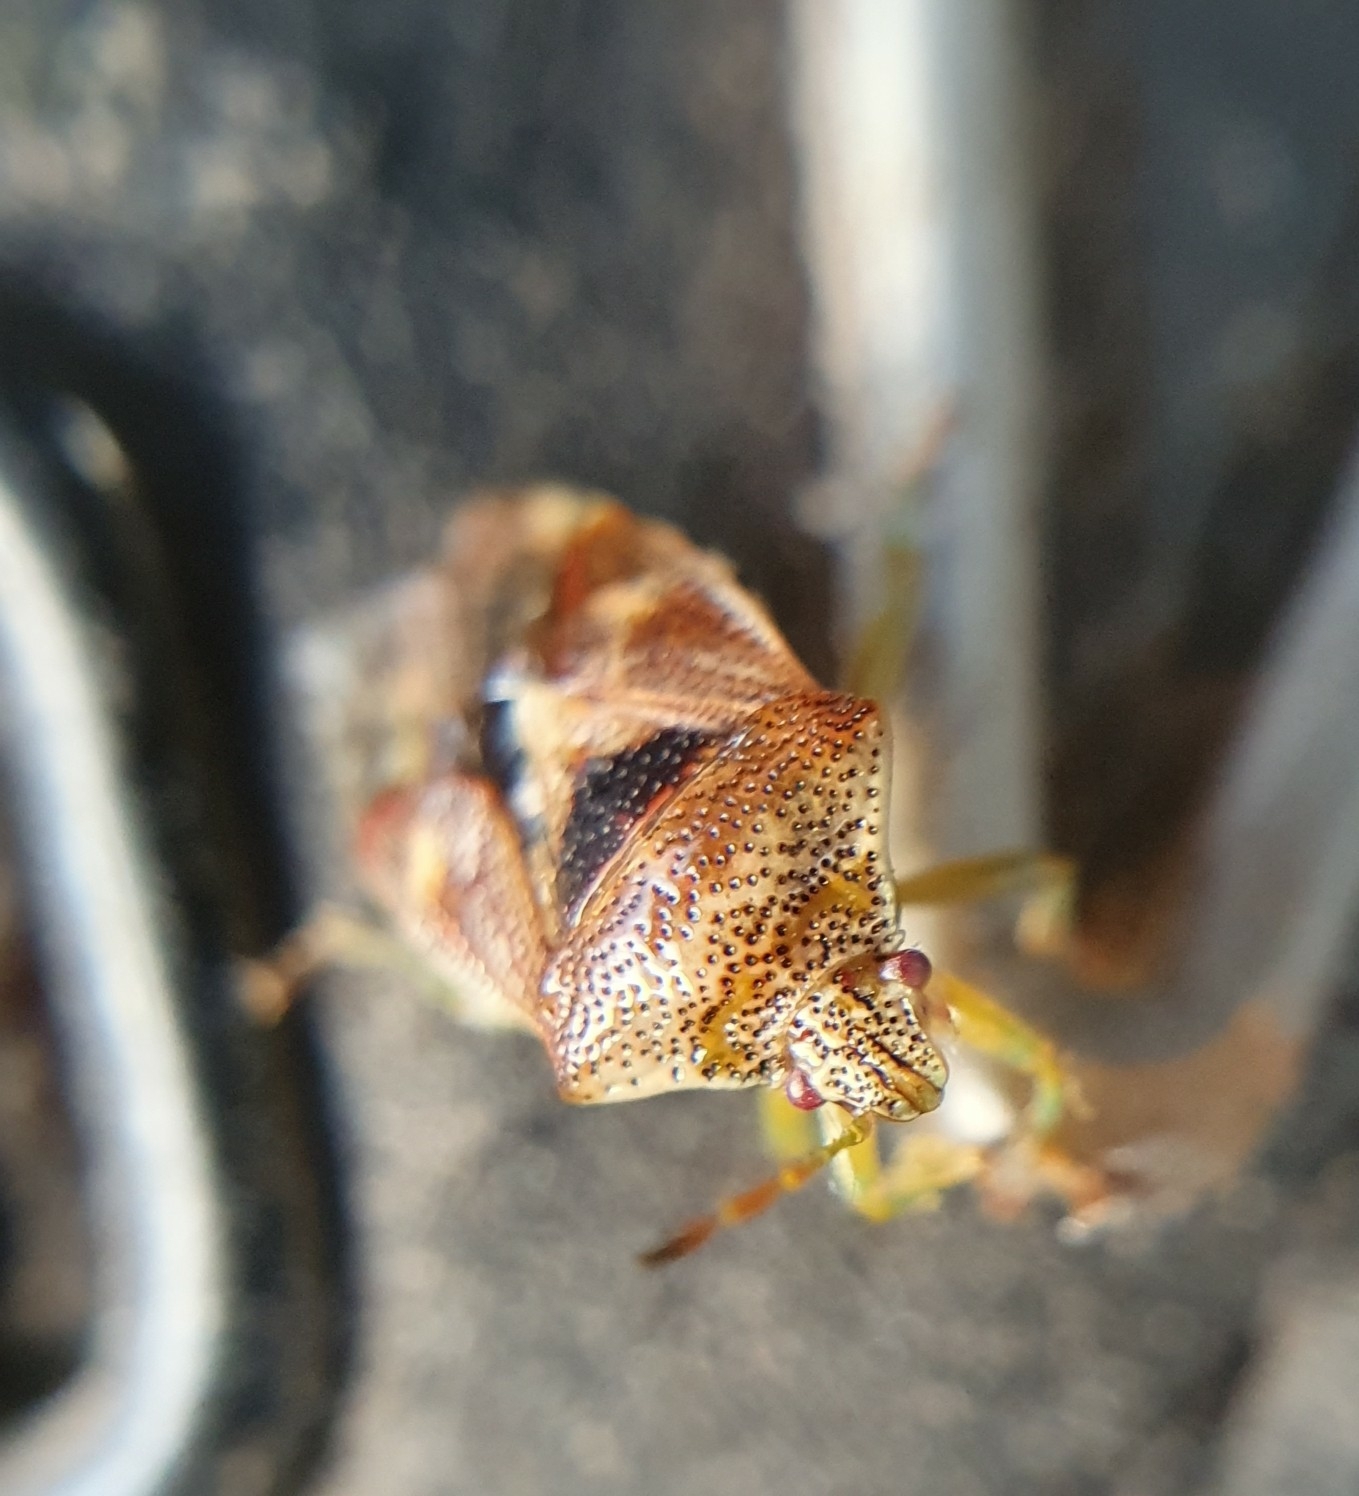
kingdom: Animalia
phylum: Arthropoda
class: Insecta
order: Hemiptera
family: Acanthosomatidae
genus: Elasmucha
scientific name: Elasmucha grisea
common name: Parent bug
